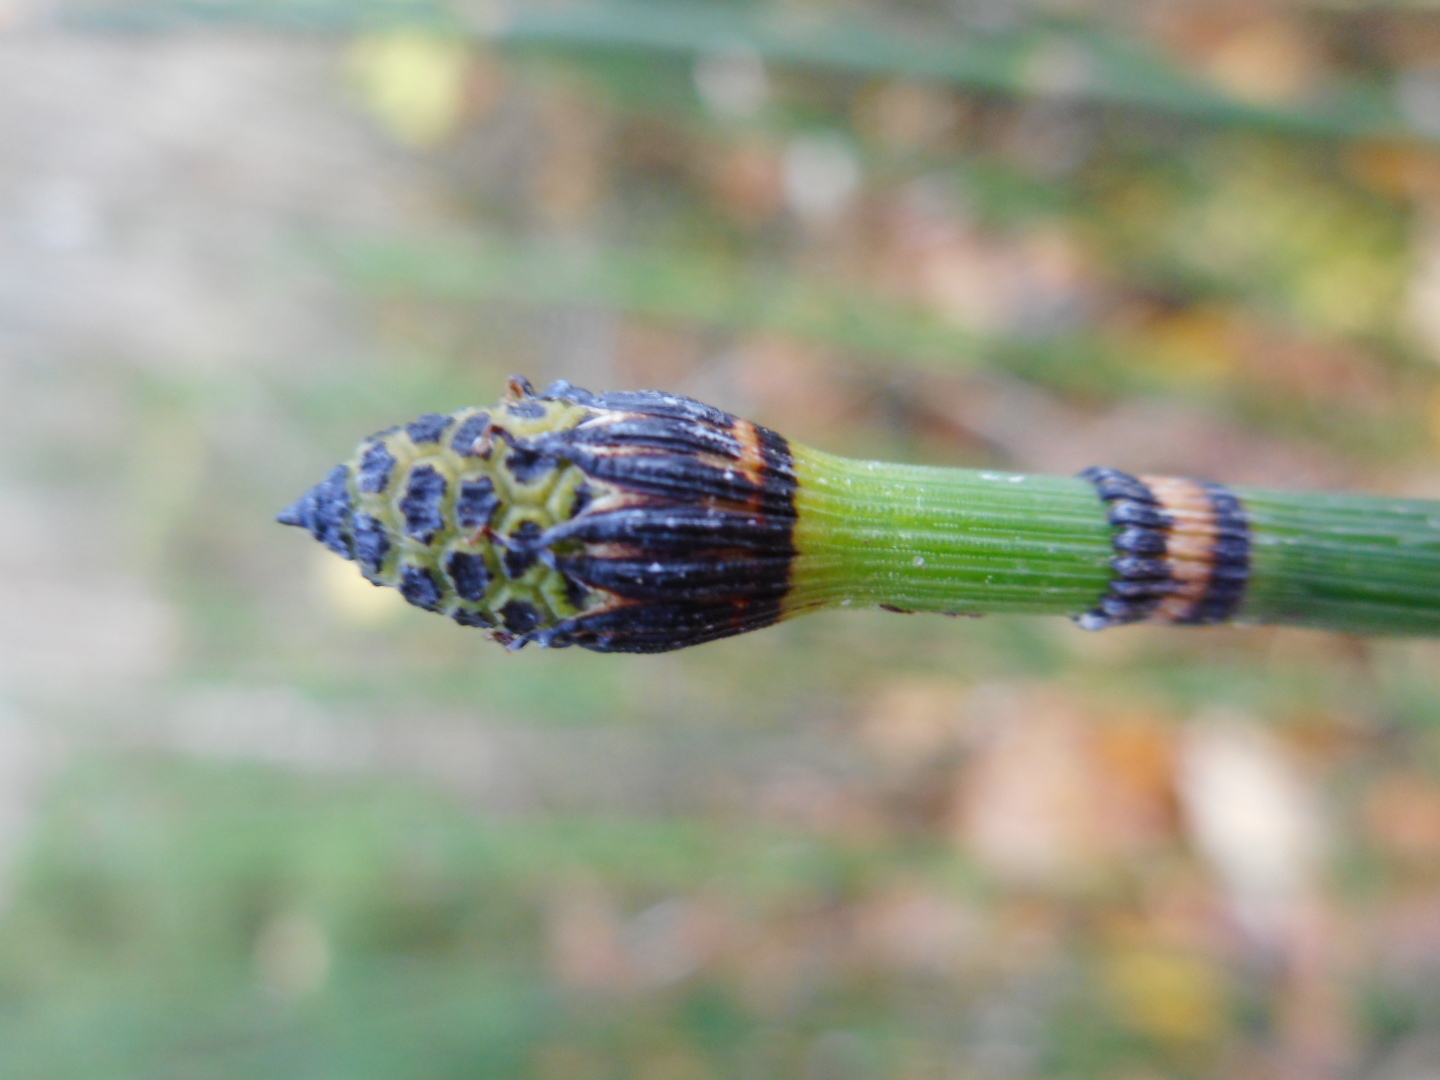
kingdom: Plantae
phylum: Tracheophyta
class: Polypodiopsida
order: Equisetales
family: Equisetaceae
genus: Equisetum
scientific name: Equisetum hyemale
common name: Rough horsetail
